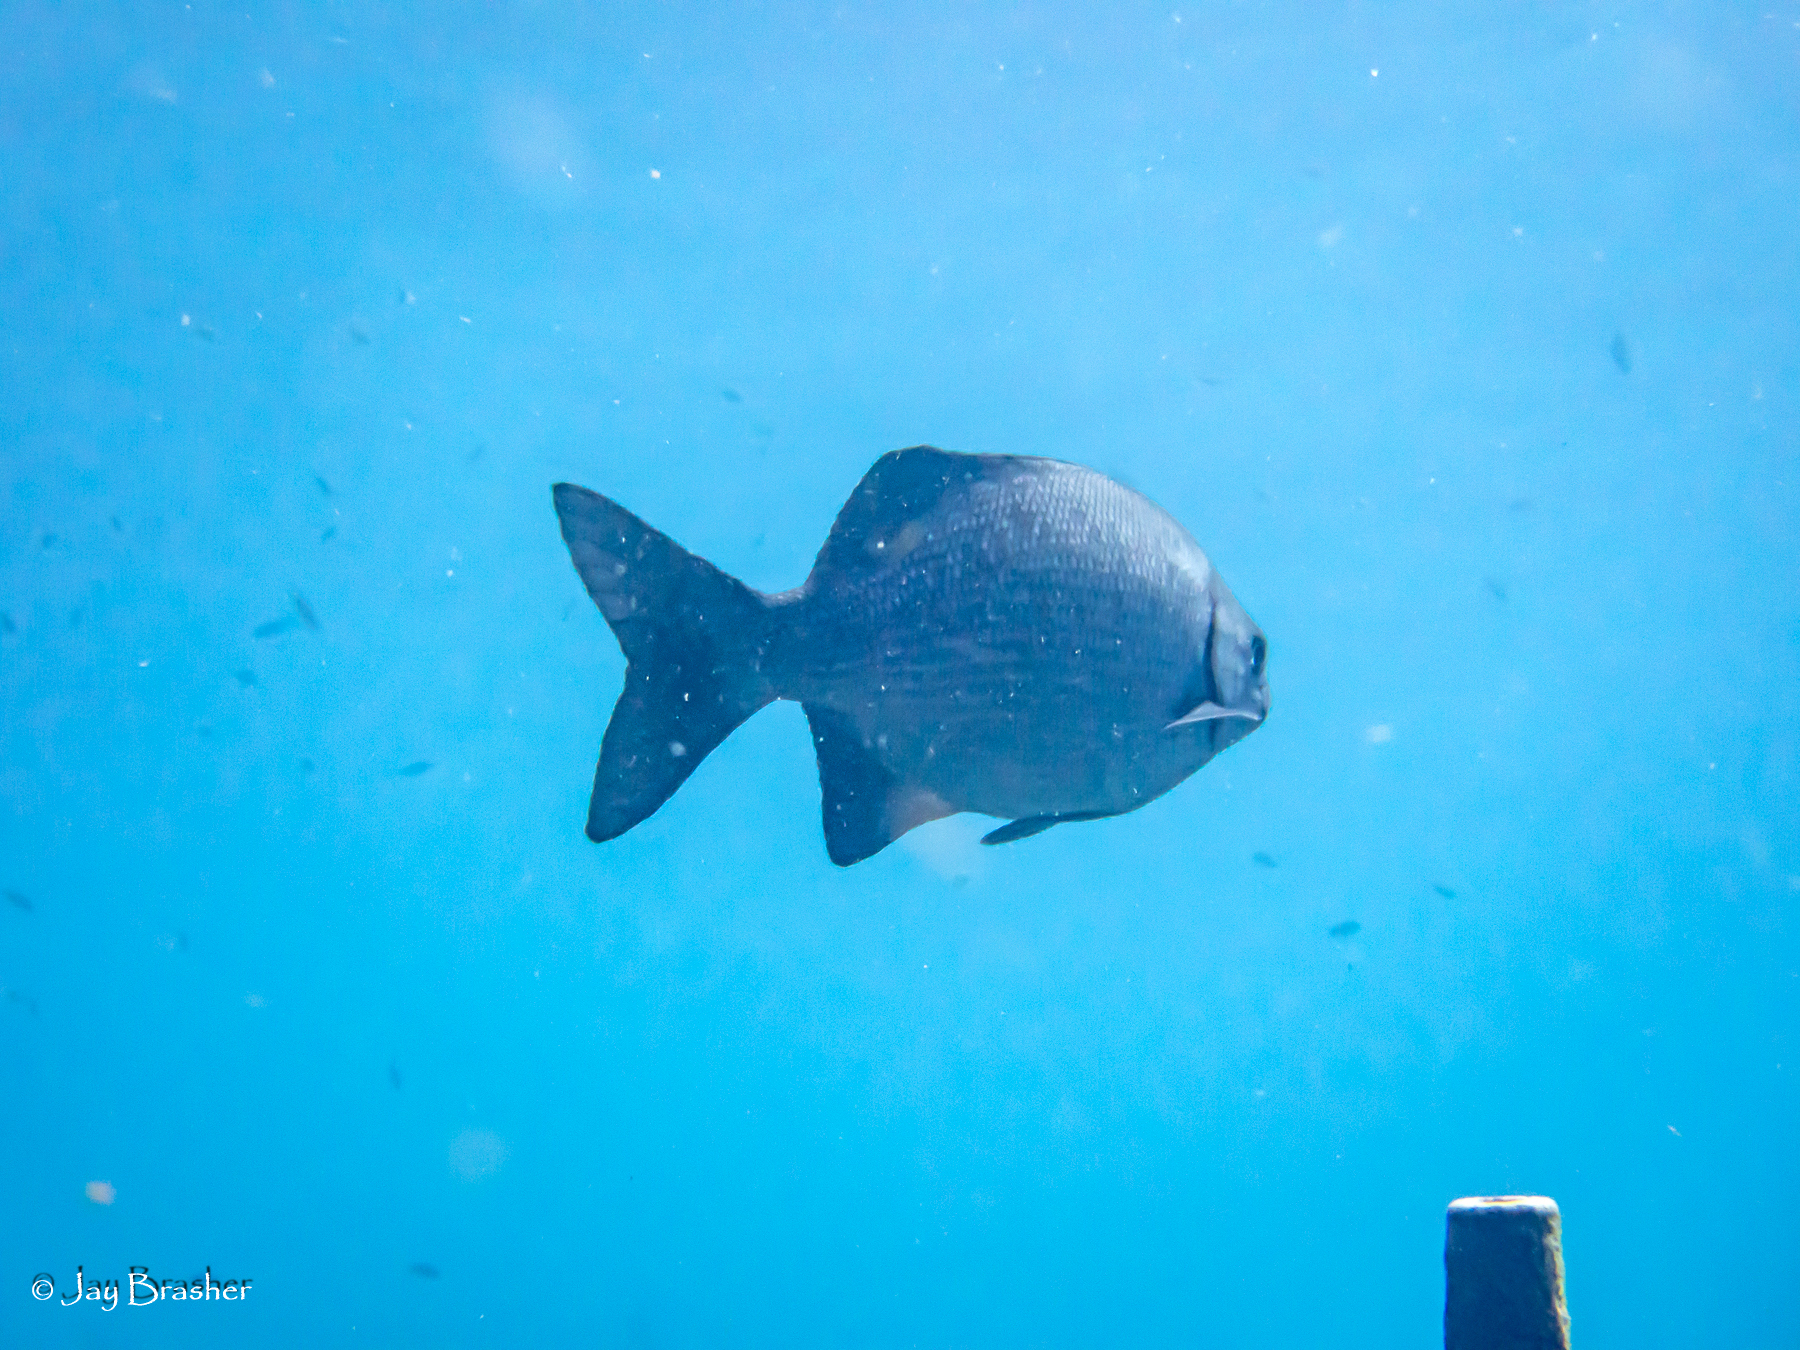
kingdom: Animalia
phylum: Chordata
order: Perciformes
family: Kyphosidae
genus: Kyphosus
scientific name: Kyphosus cinerascens
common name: Topsail drummer
